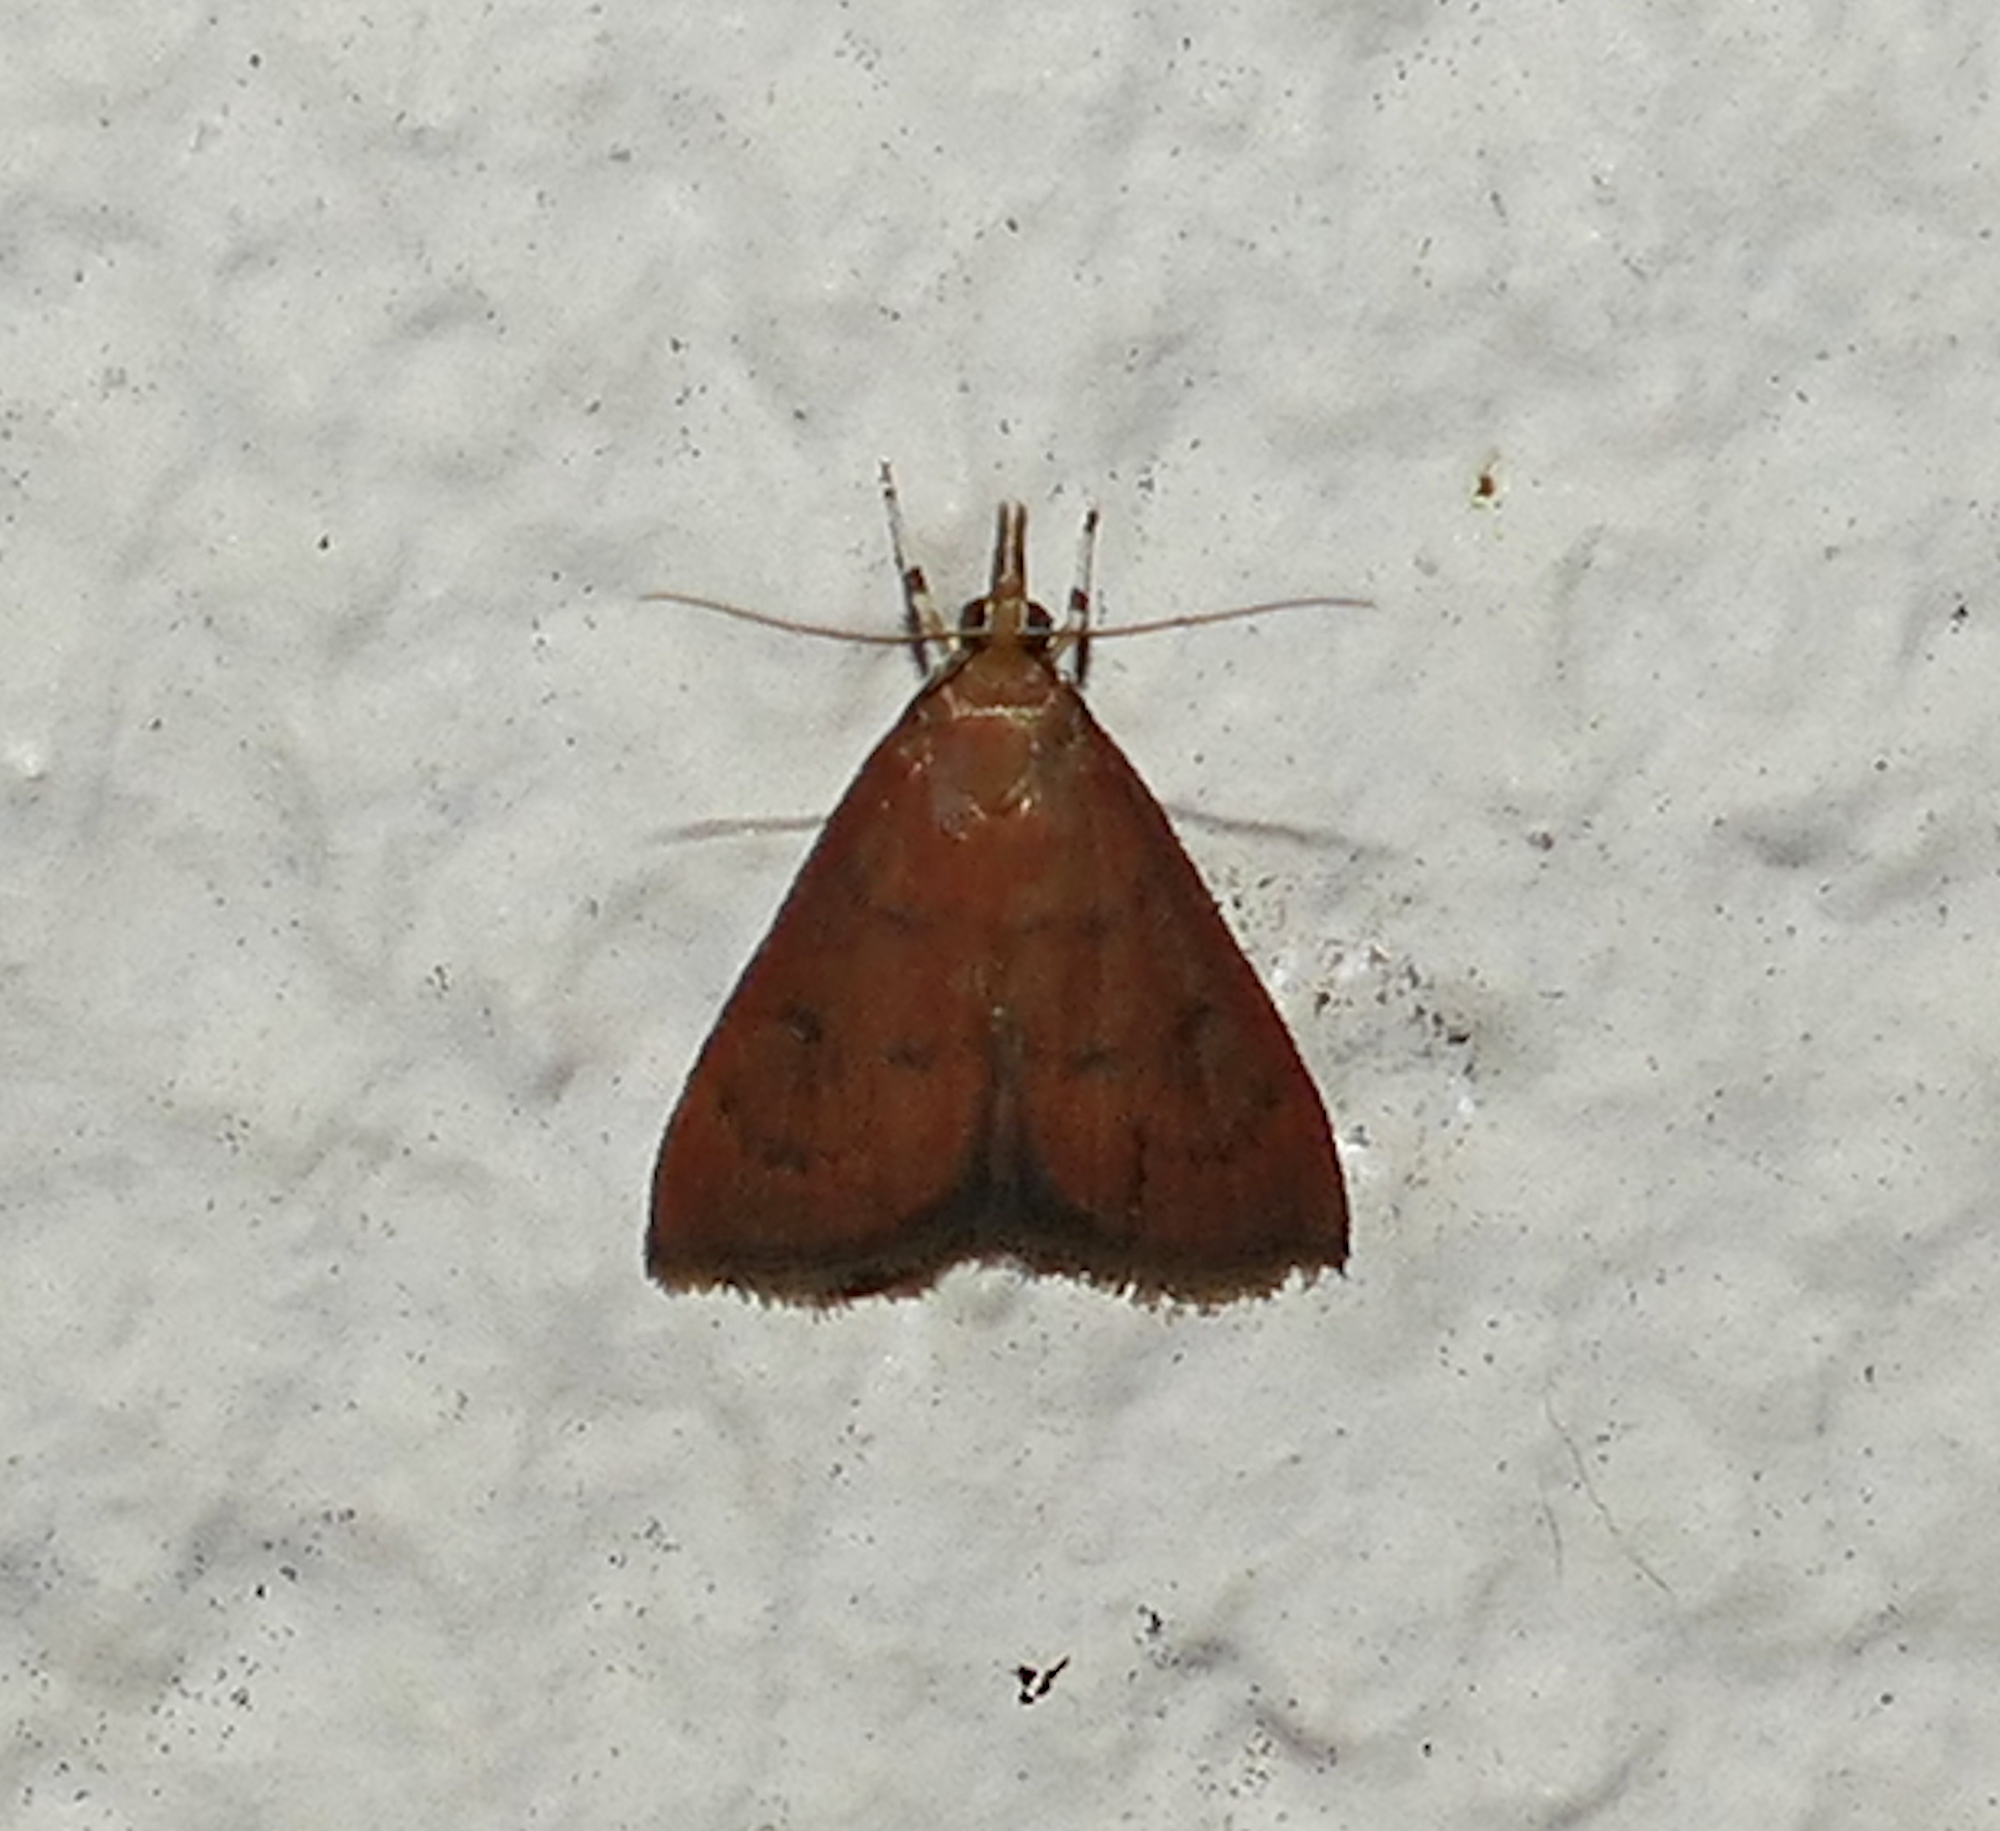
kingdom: Animalia
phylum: Arthropoda
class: Insecta
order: Lepidoptera
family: Crambidae
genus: Oenobotys
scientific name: Oenobotys vinotinctalis
